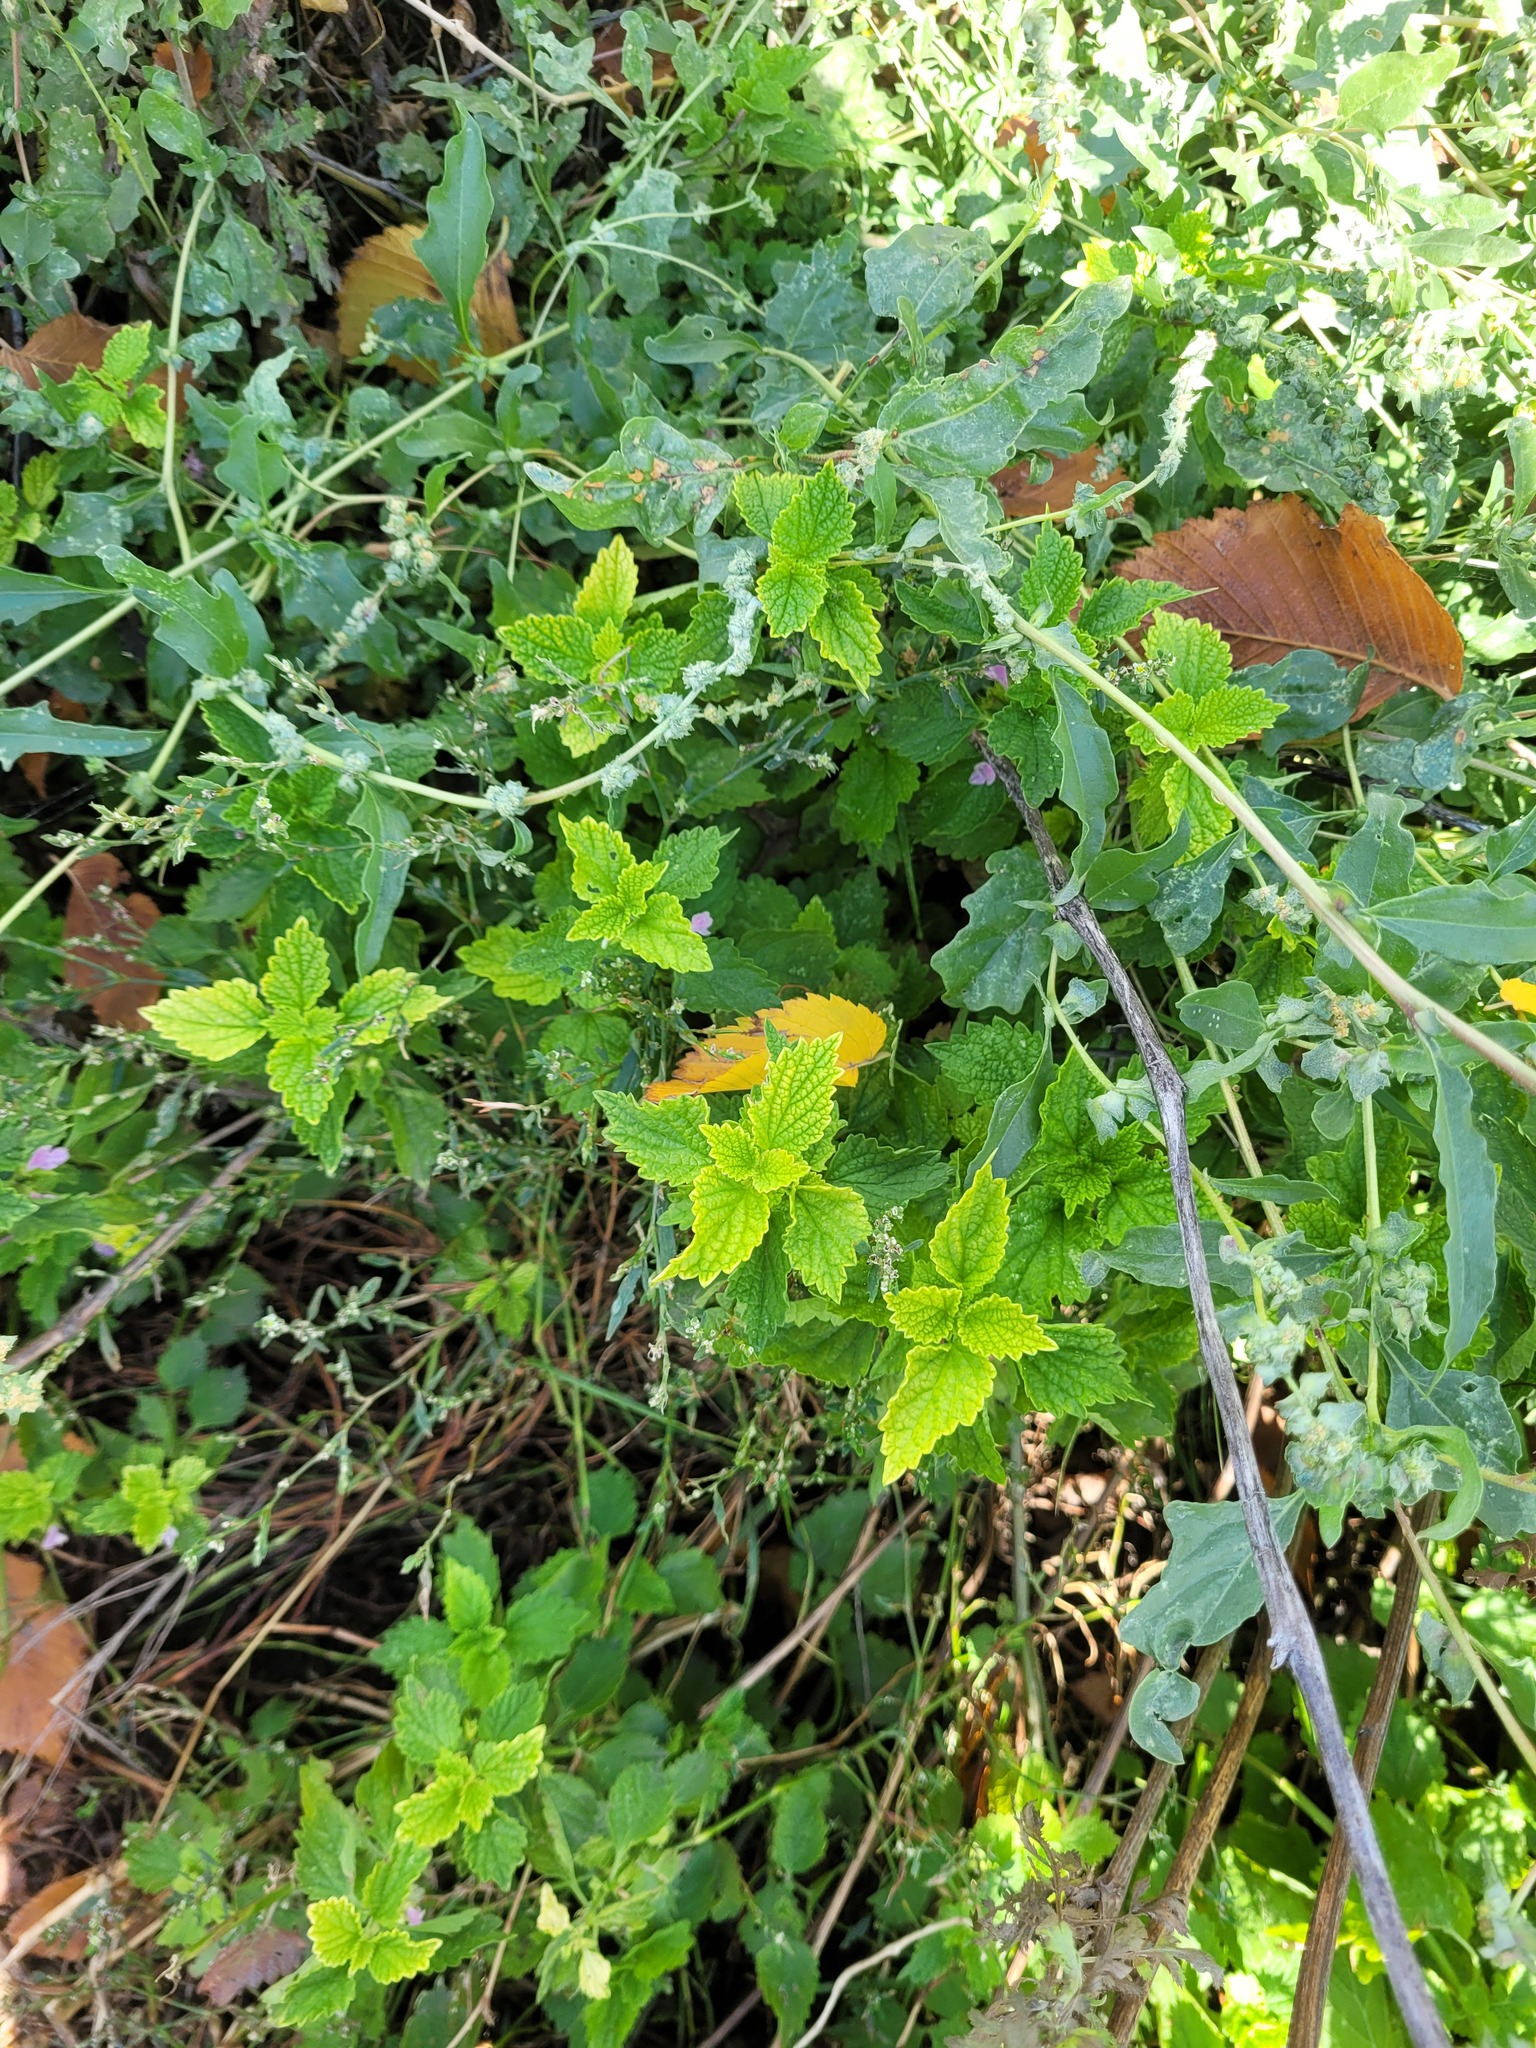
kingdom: Plantae
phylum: Tracheophyta
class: Magnoliopsida
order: Lamiales
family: Lamiaceae
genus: Ballota
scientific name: Ballota nigra
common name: Black horehound
